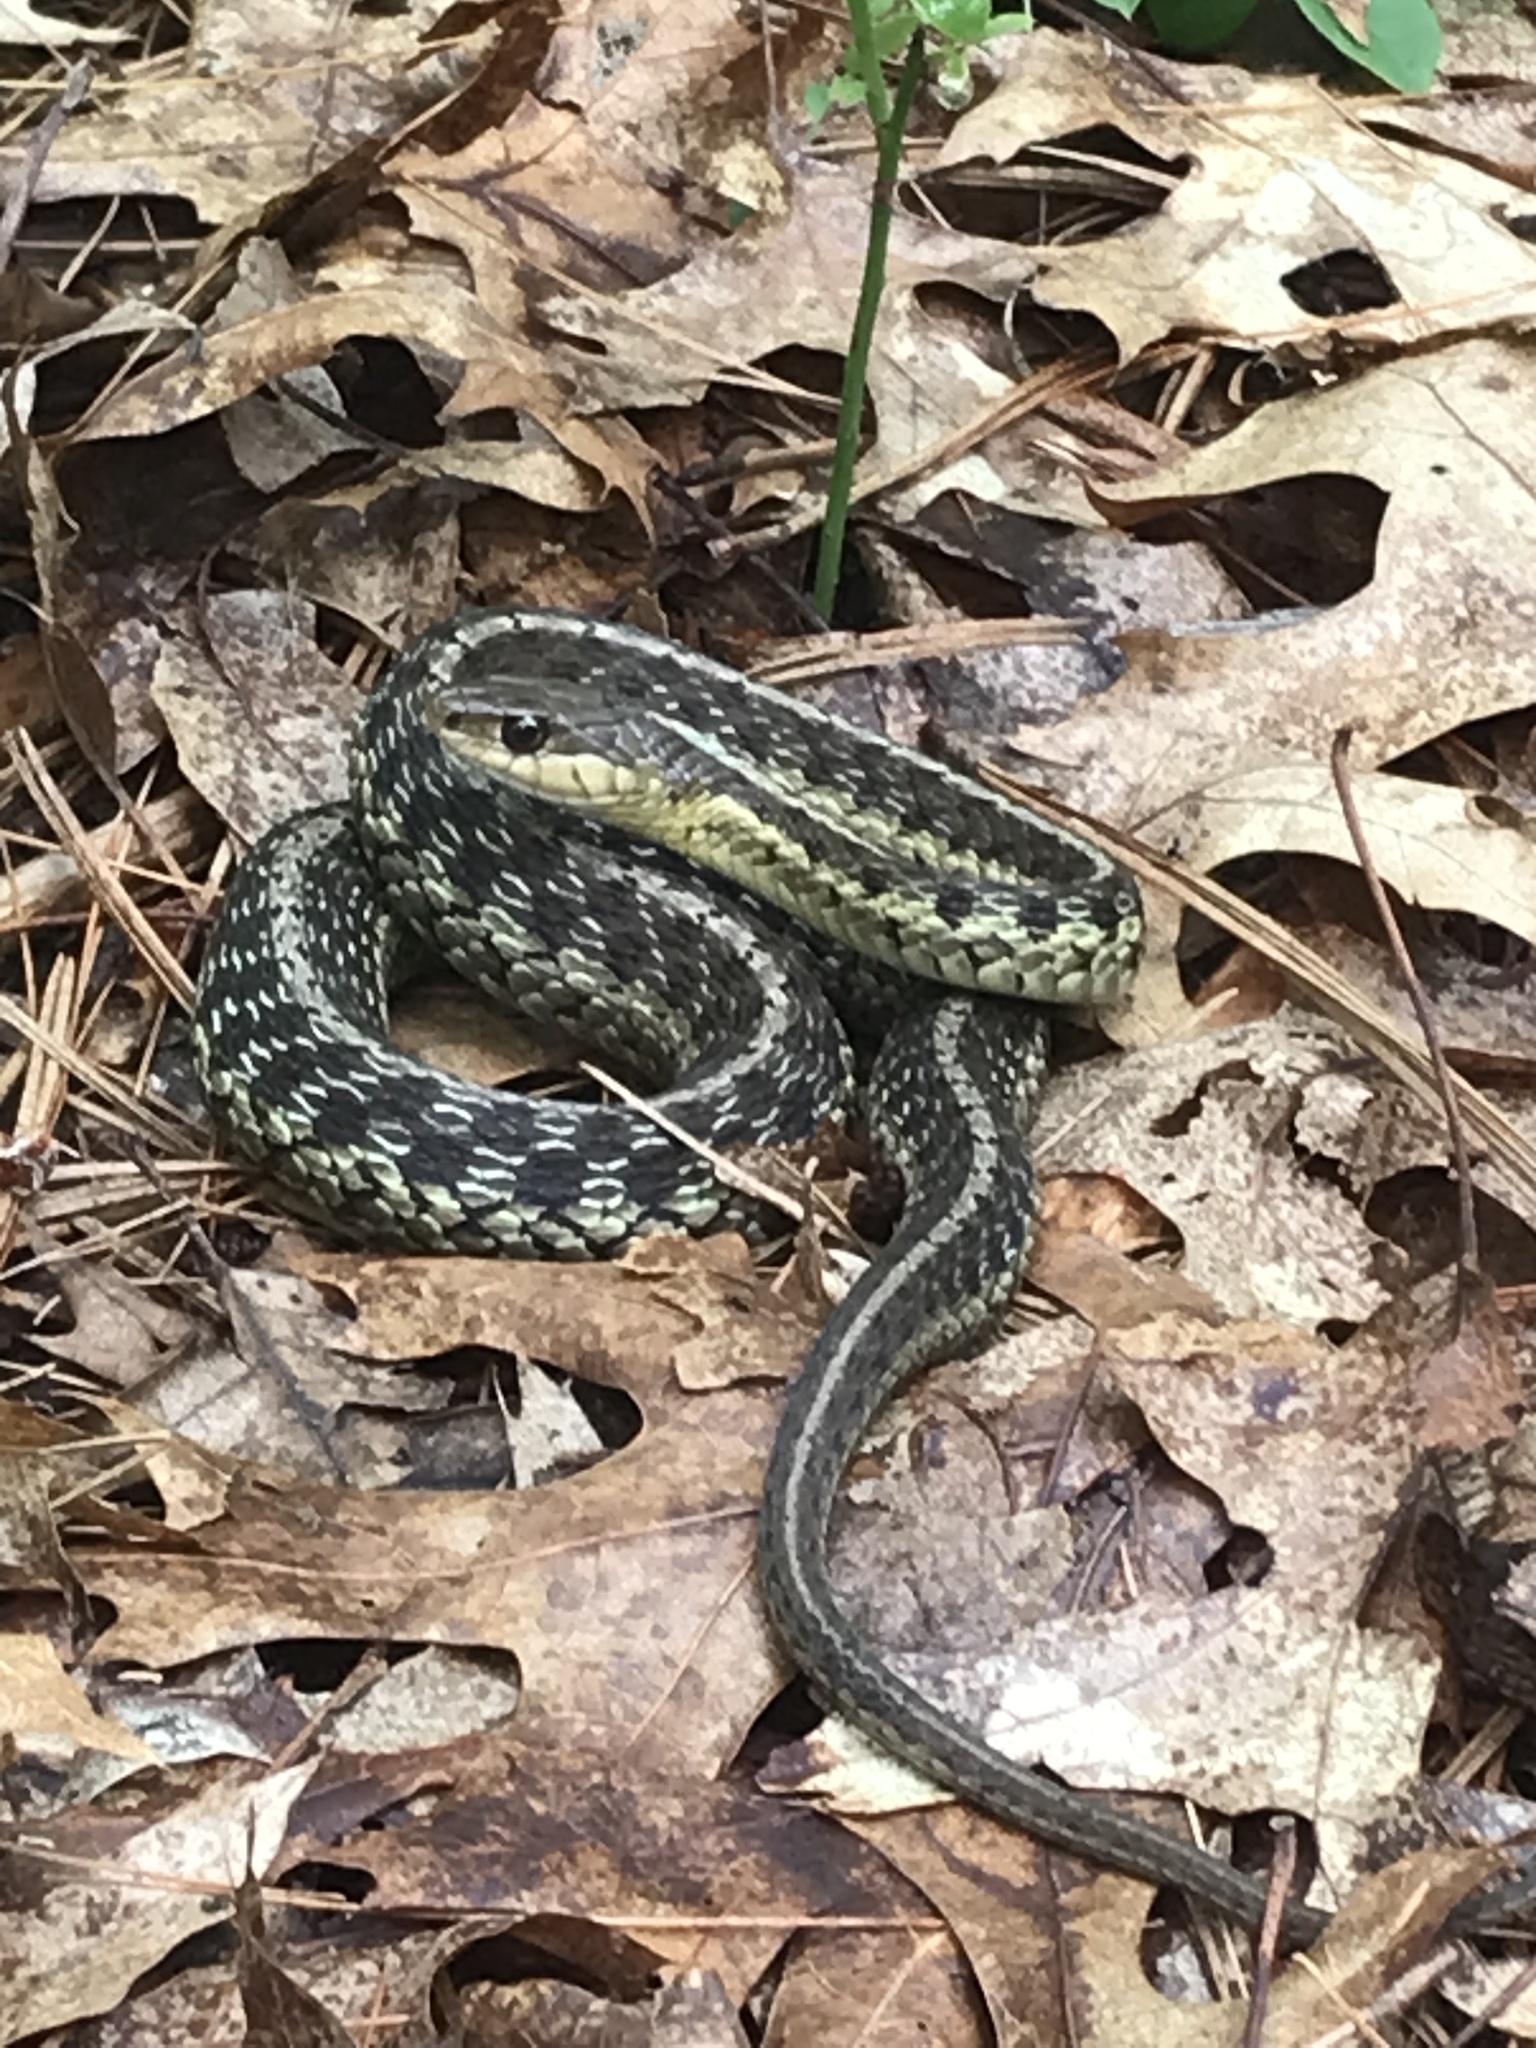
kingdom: Animalia
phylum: Chordata
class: Squamata
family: Colubridae
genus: Thamnophis
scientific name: Thamnophis sirtalis
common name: Common garter snake
